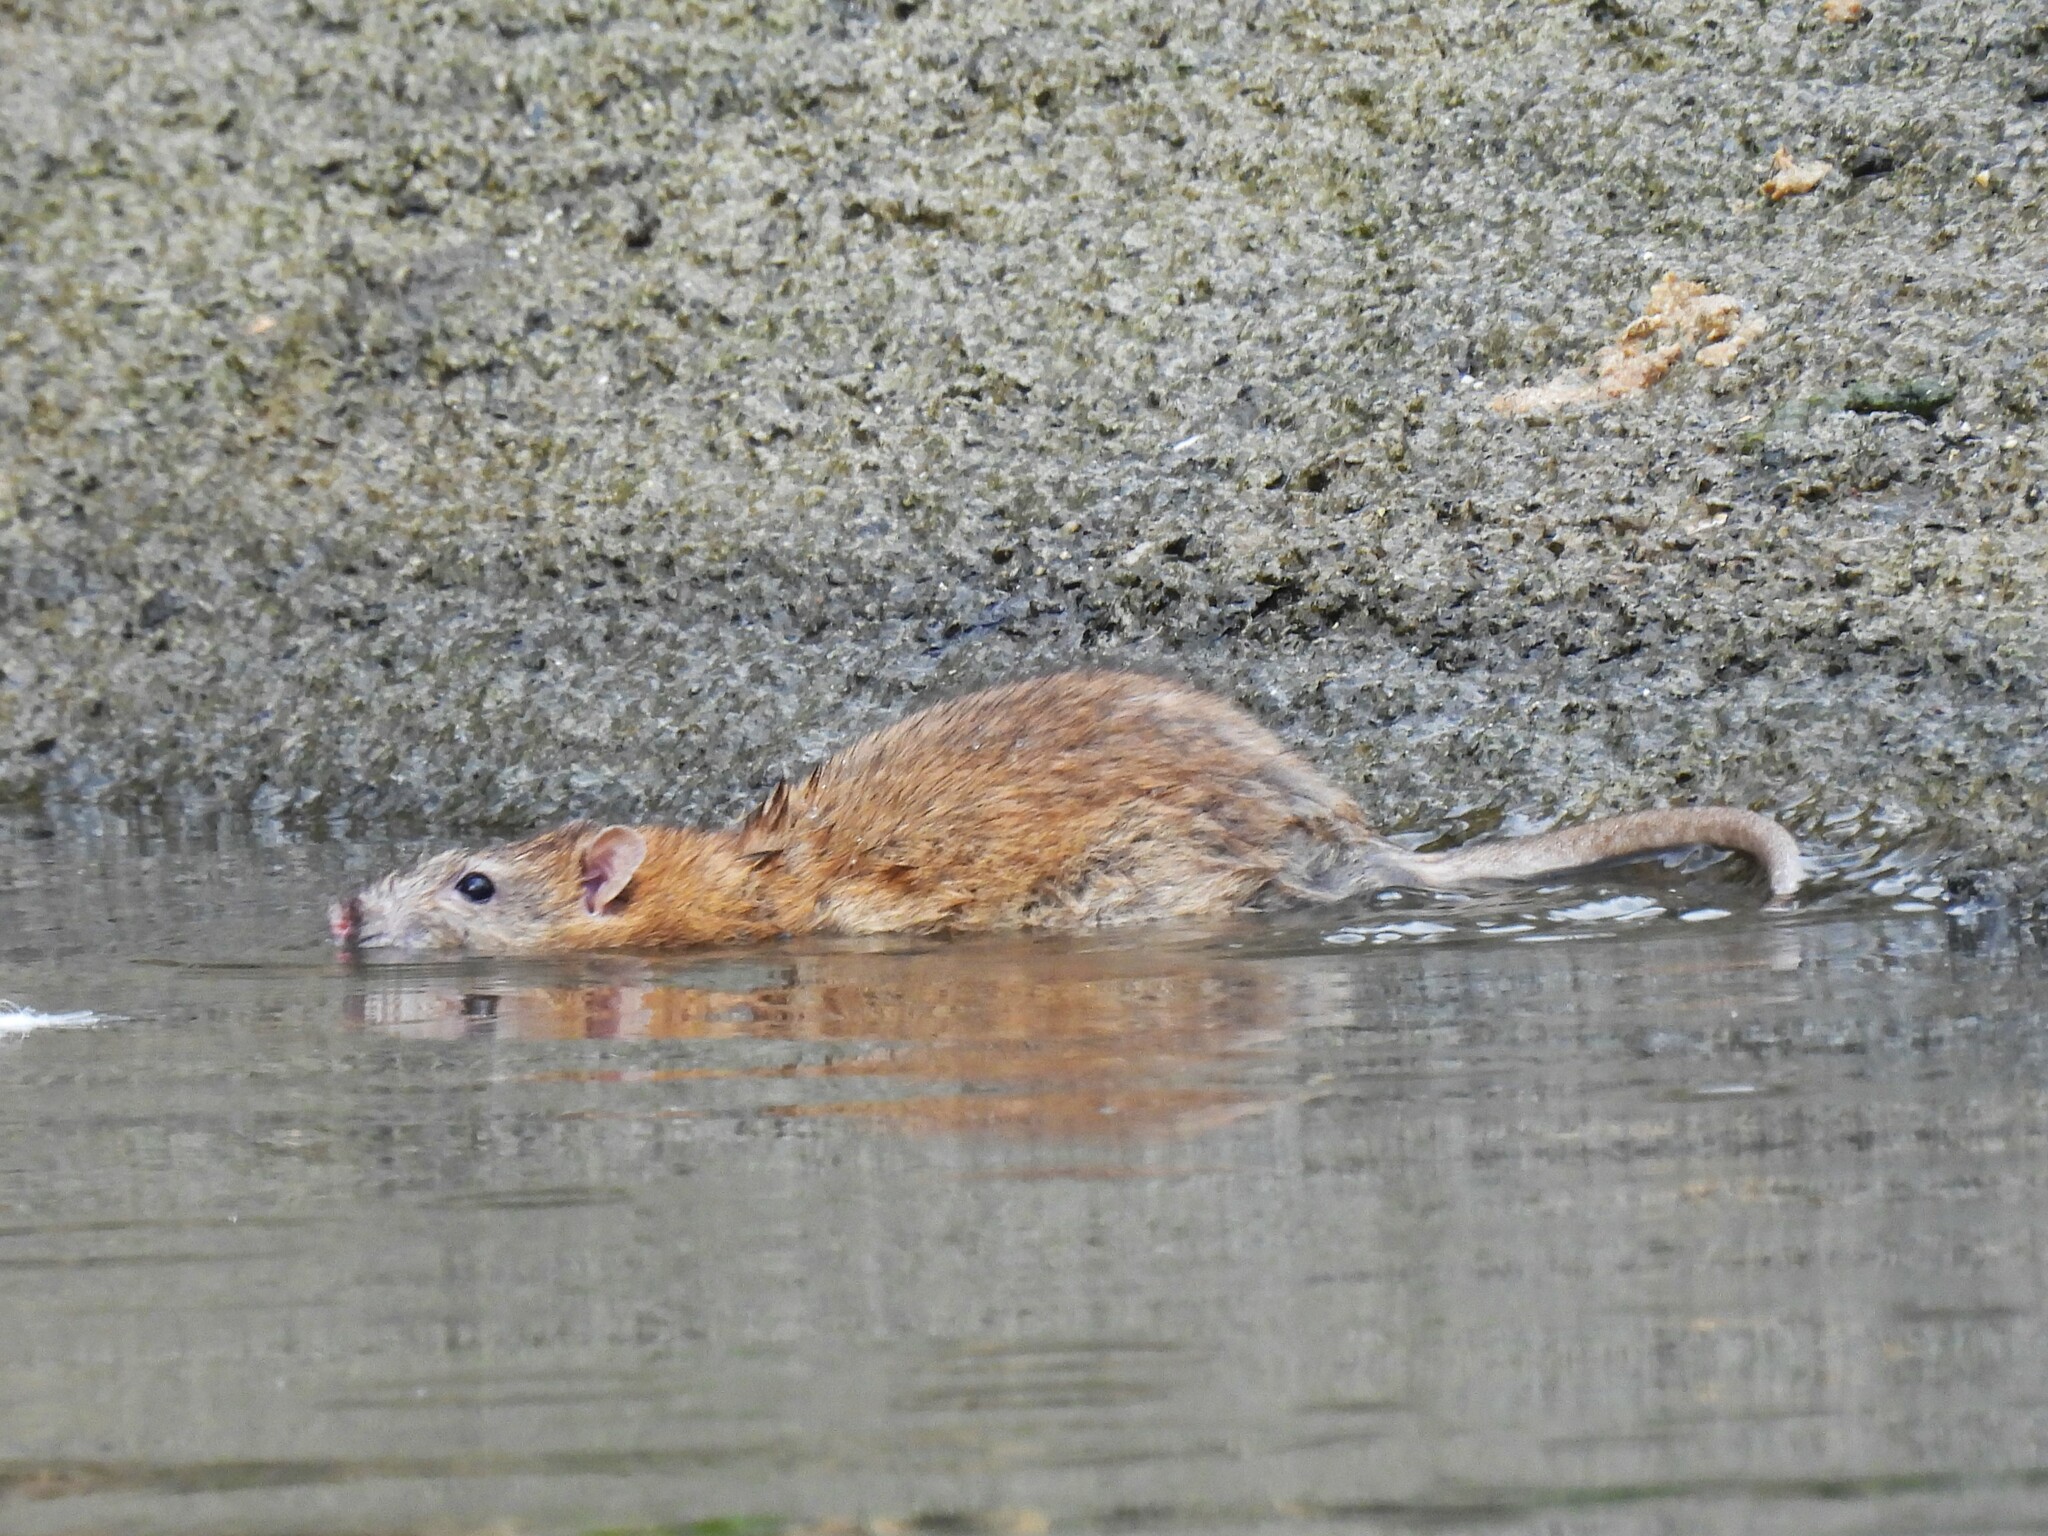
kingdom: Animalia
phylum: Chordata
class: Mammalia
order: Rodentia
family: Muridae
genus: Rattus
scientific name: Rattus norvegicus
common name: Brown rat
